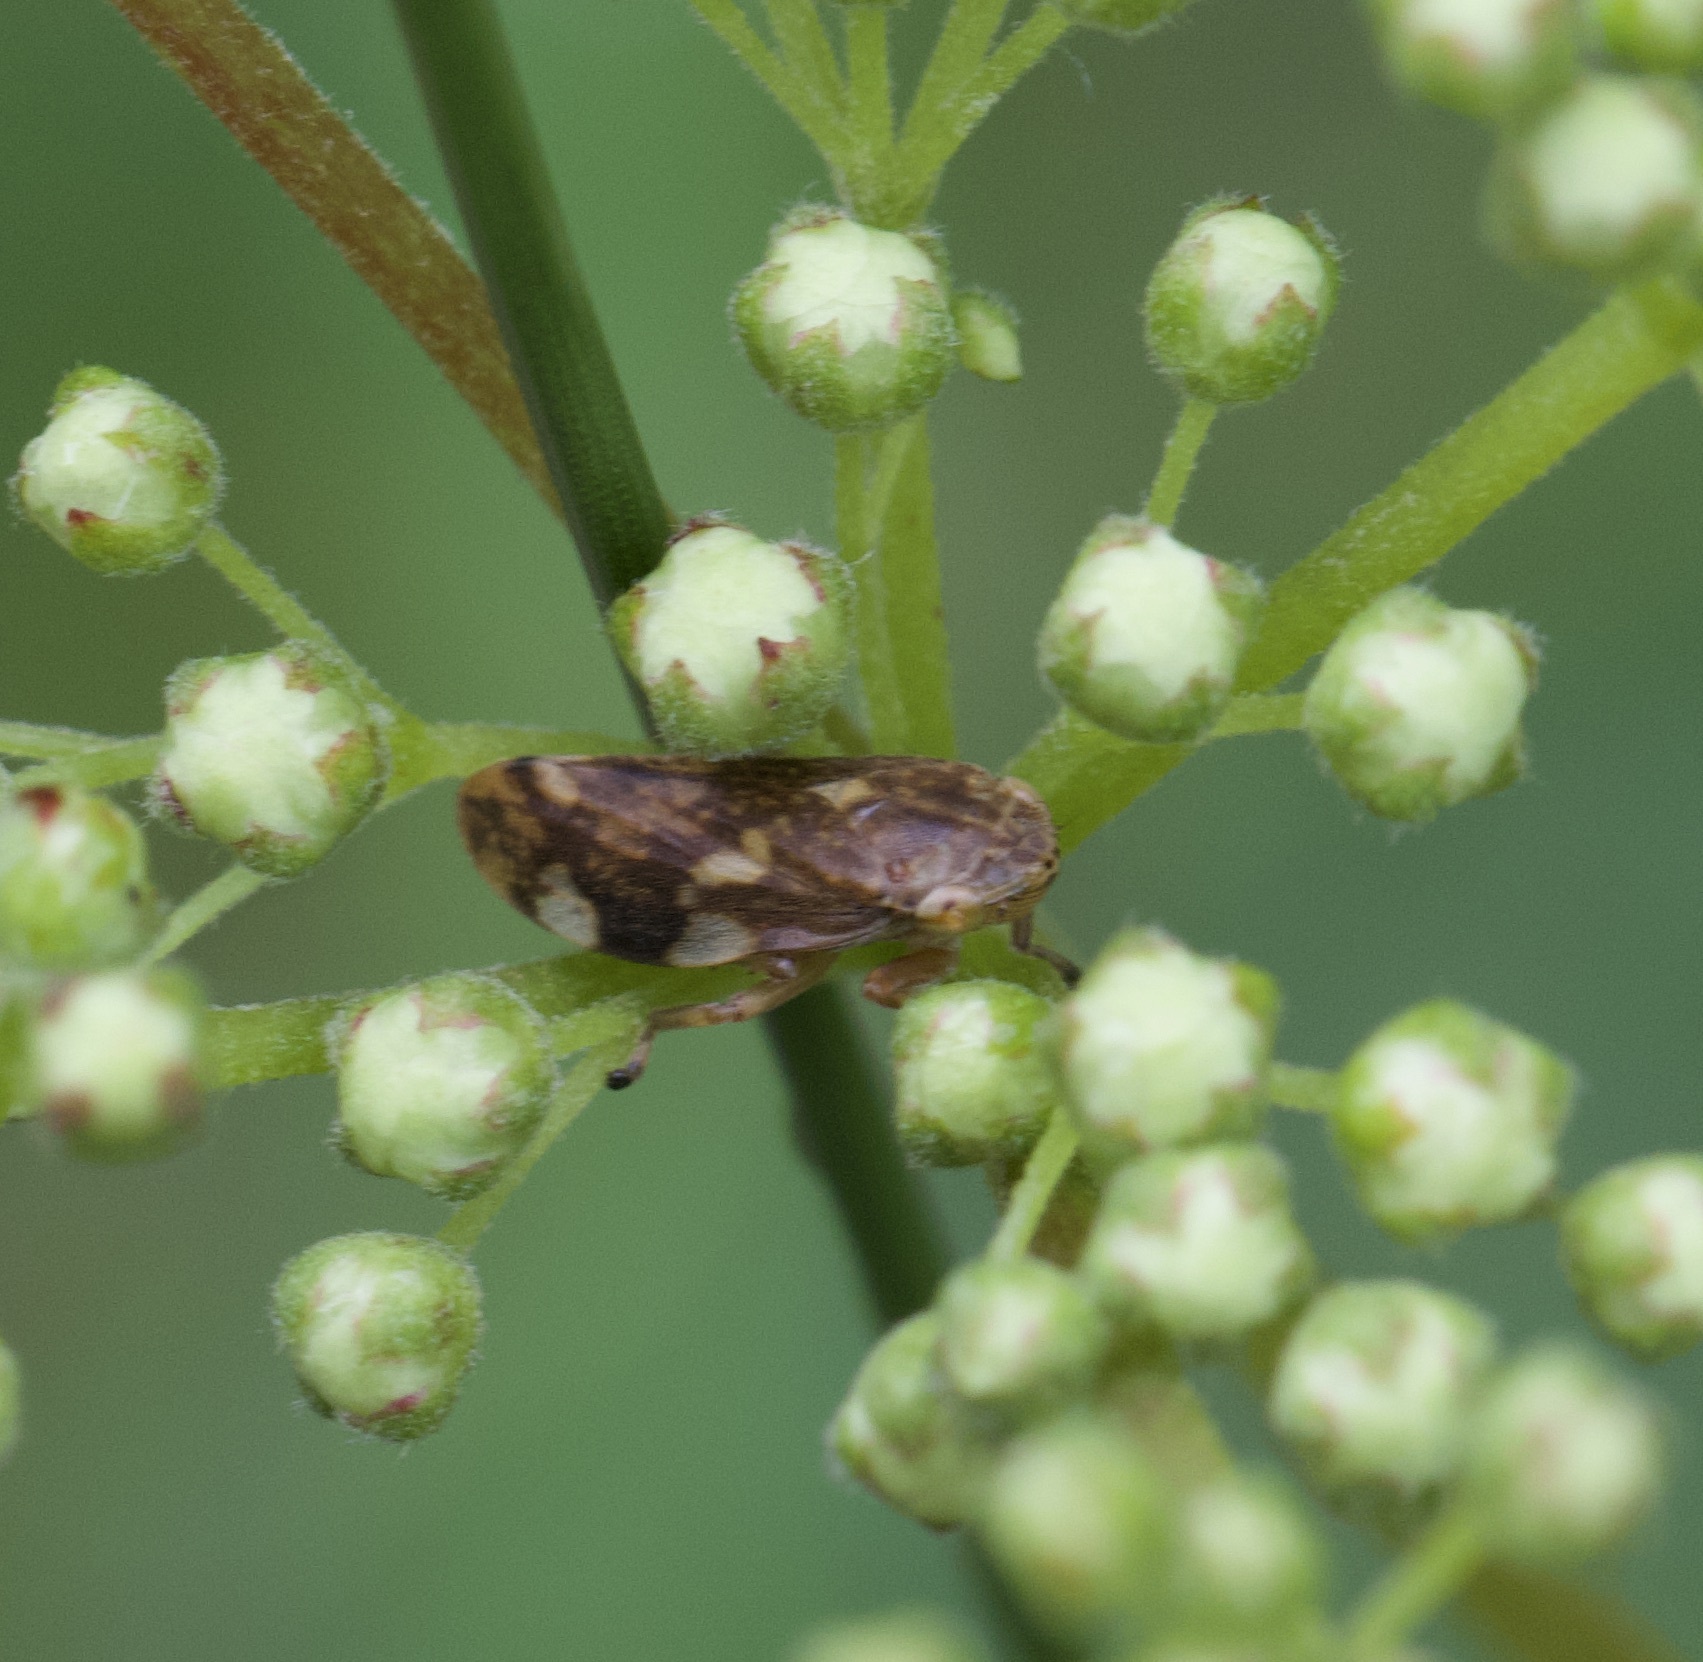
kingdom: Animalia
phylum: Arthropoda
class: Insecta
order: Hemiptera
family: Aphrophoridae
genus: Philaenus
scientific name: Philaenus spumarius
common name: Meadow spittlebug
